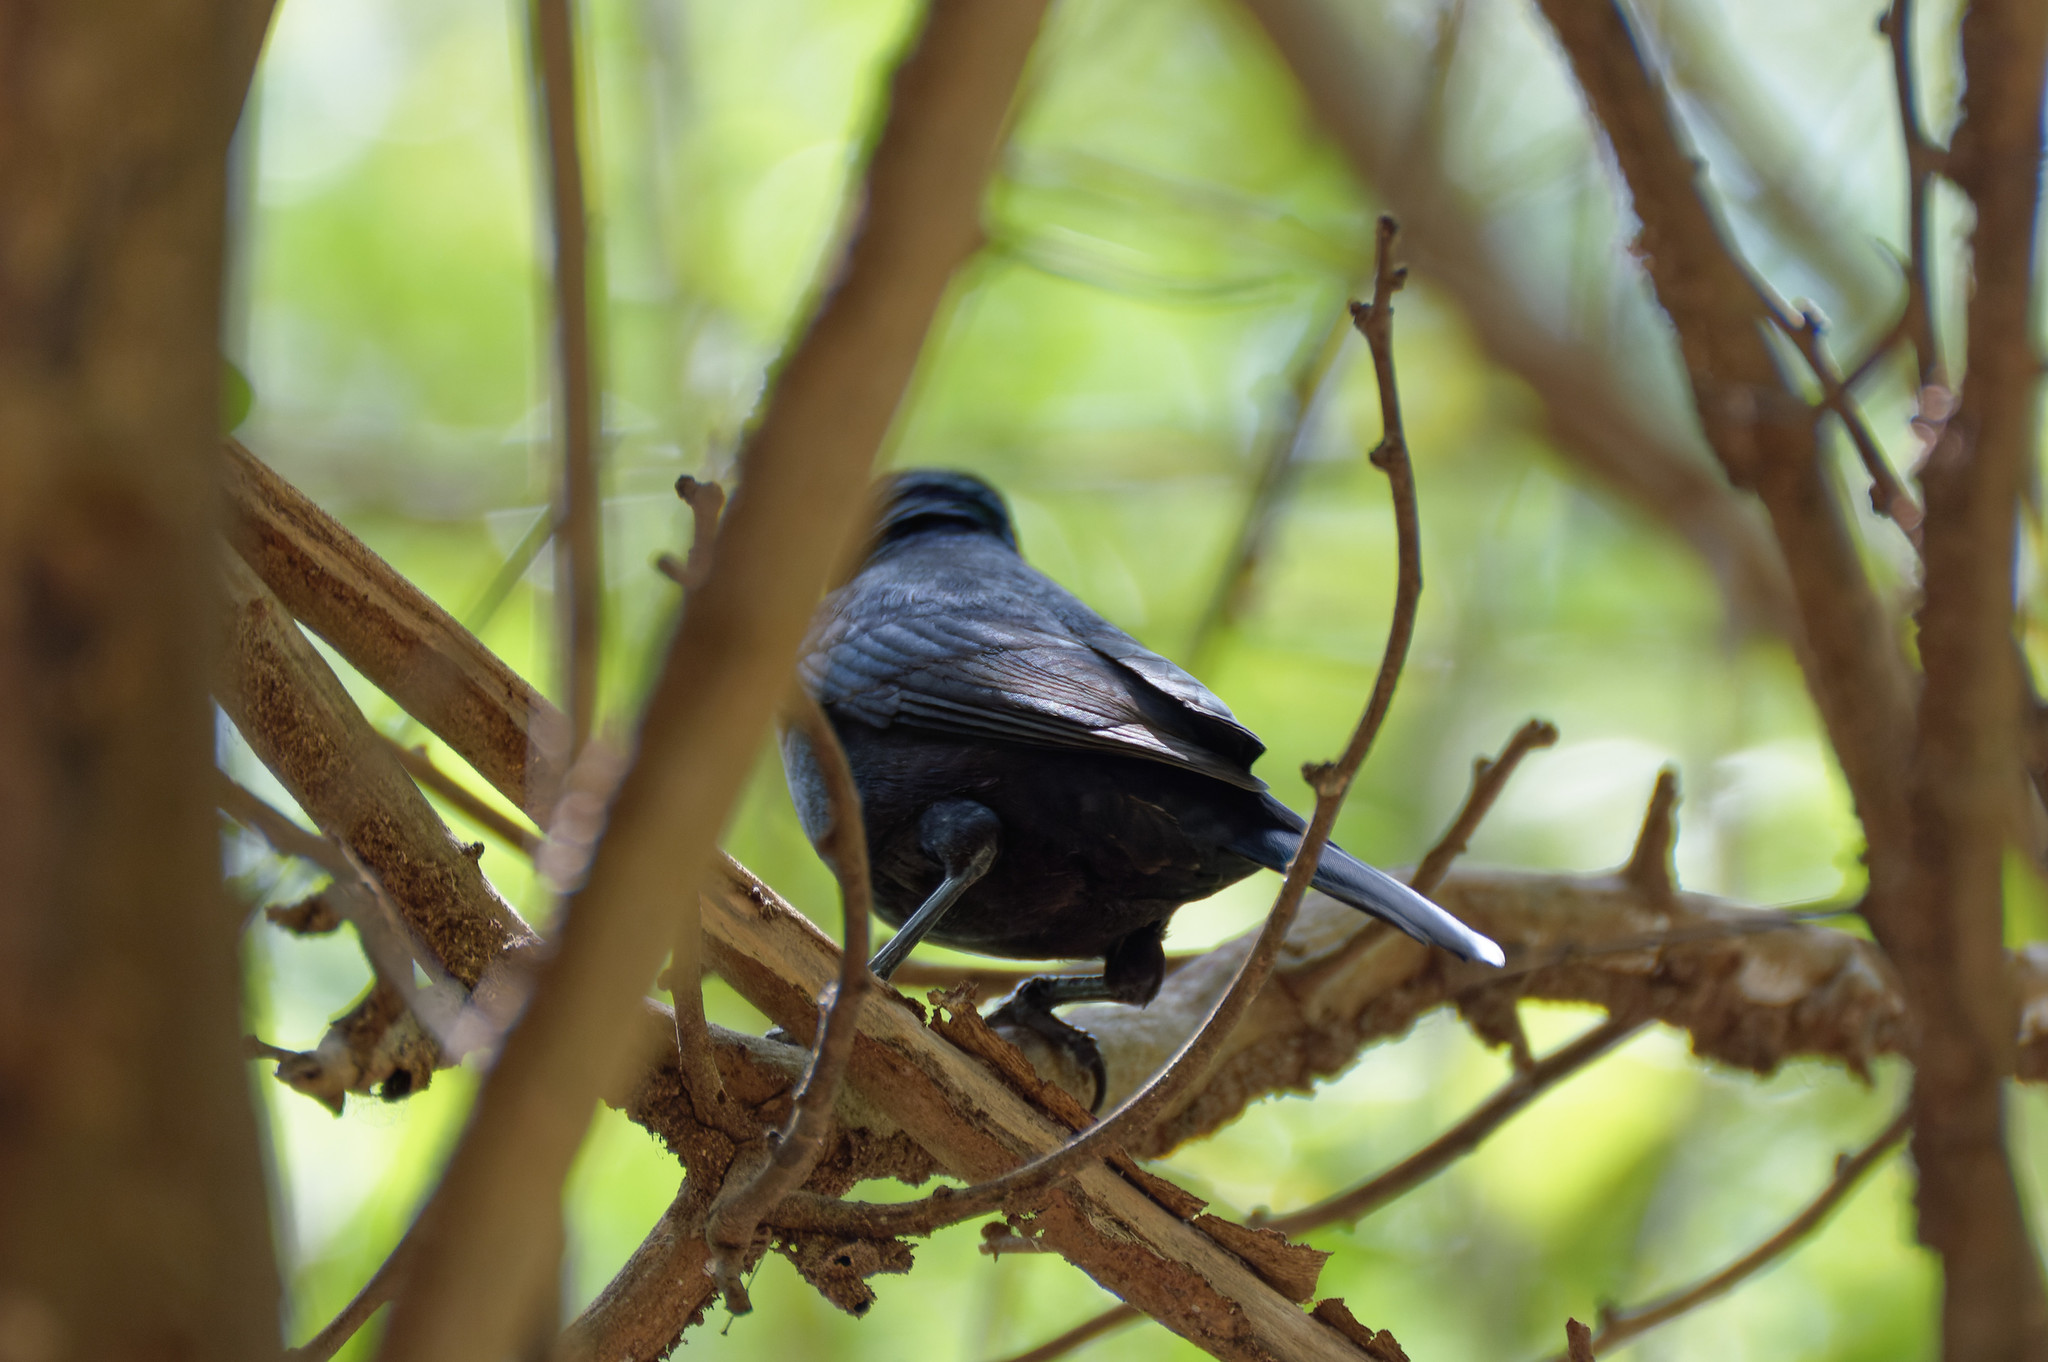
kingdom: Animalia
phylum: Chordata
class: Aves
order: Passeriformes
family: Icteridae
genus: Molothrus
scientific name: Molothrus bonariensis
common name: Shiny cowbird
